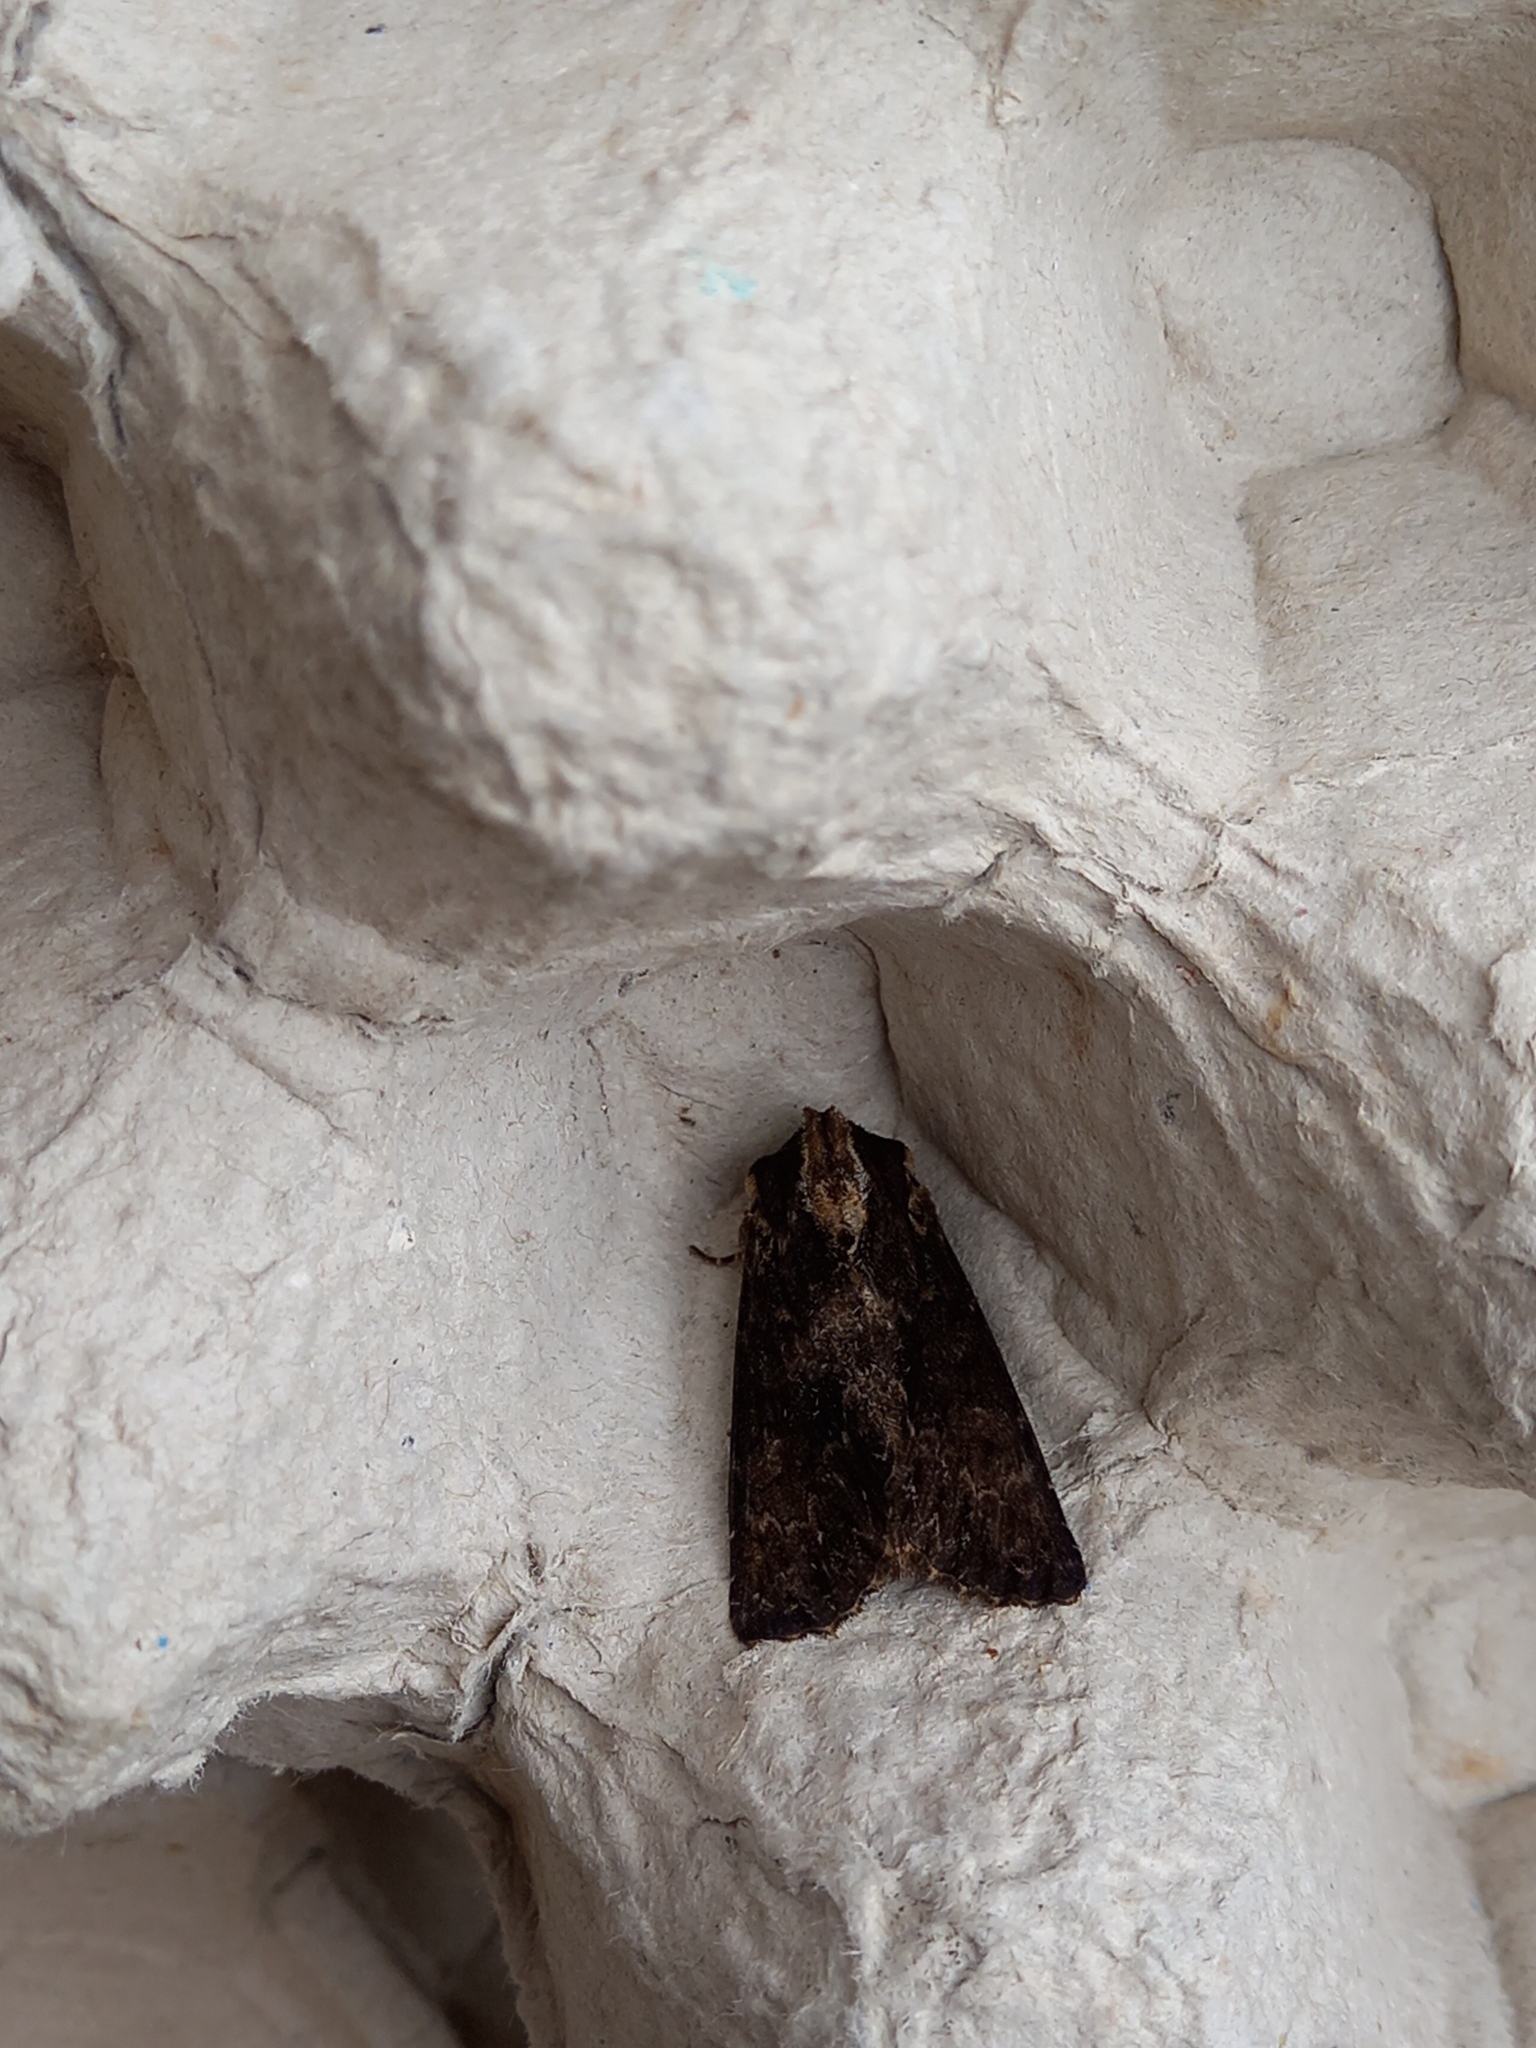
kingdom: Animalia
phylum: Arthropoda
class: Insecta
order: Lepidoptera
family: Noctuidae
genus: Apamea
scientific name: Apamea monoglypha
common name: Dark arches
